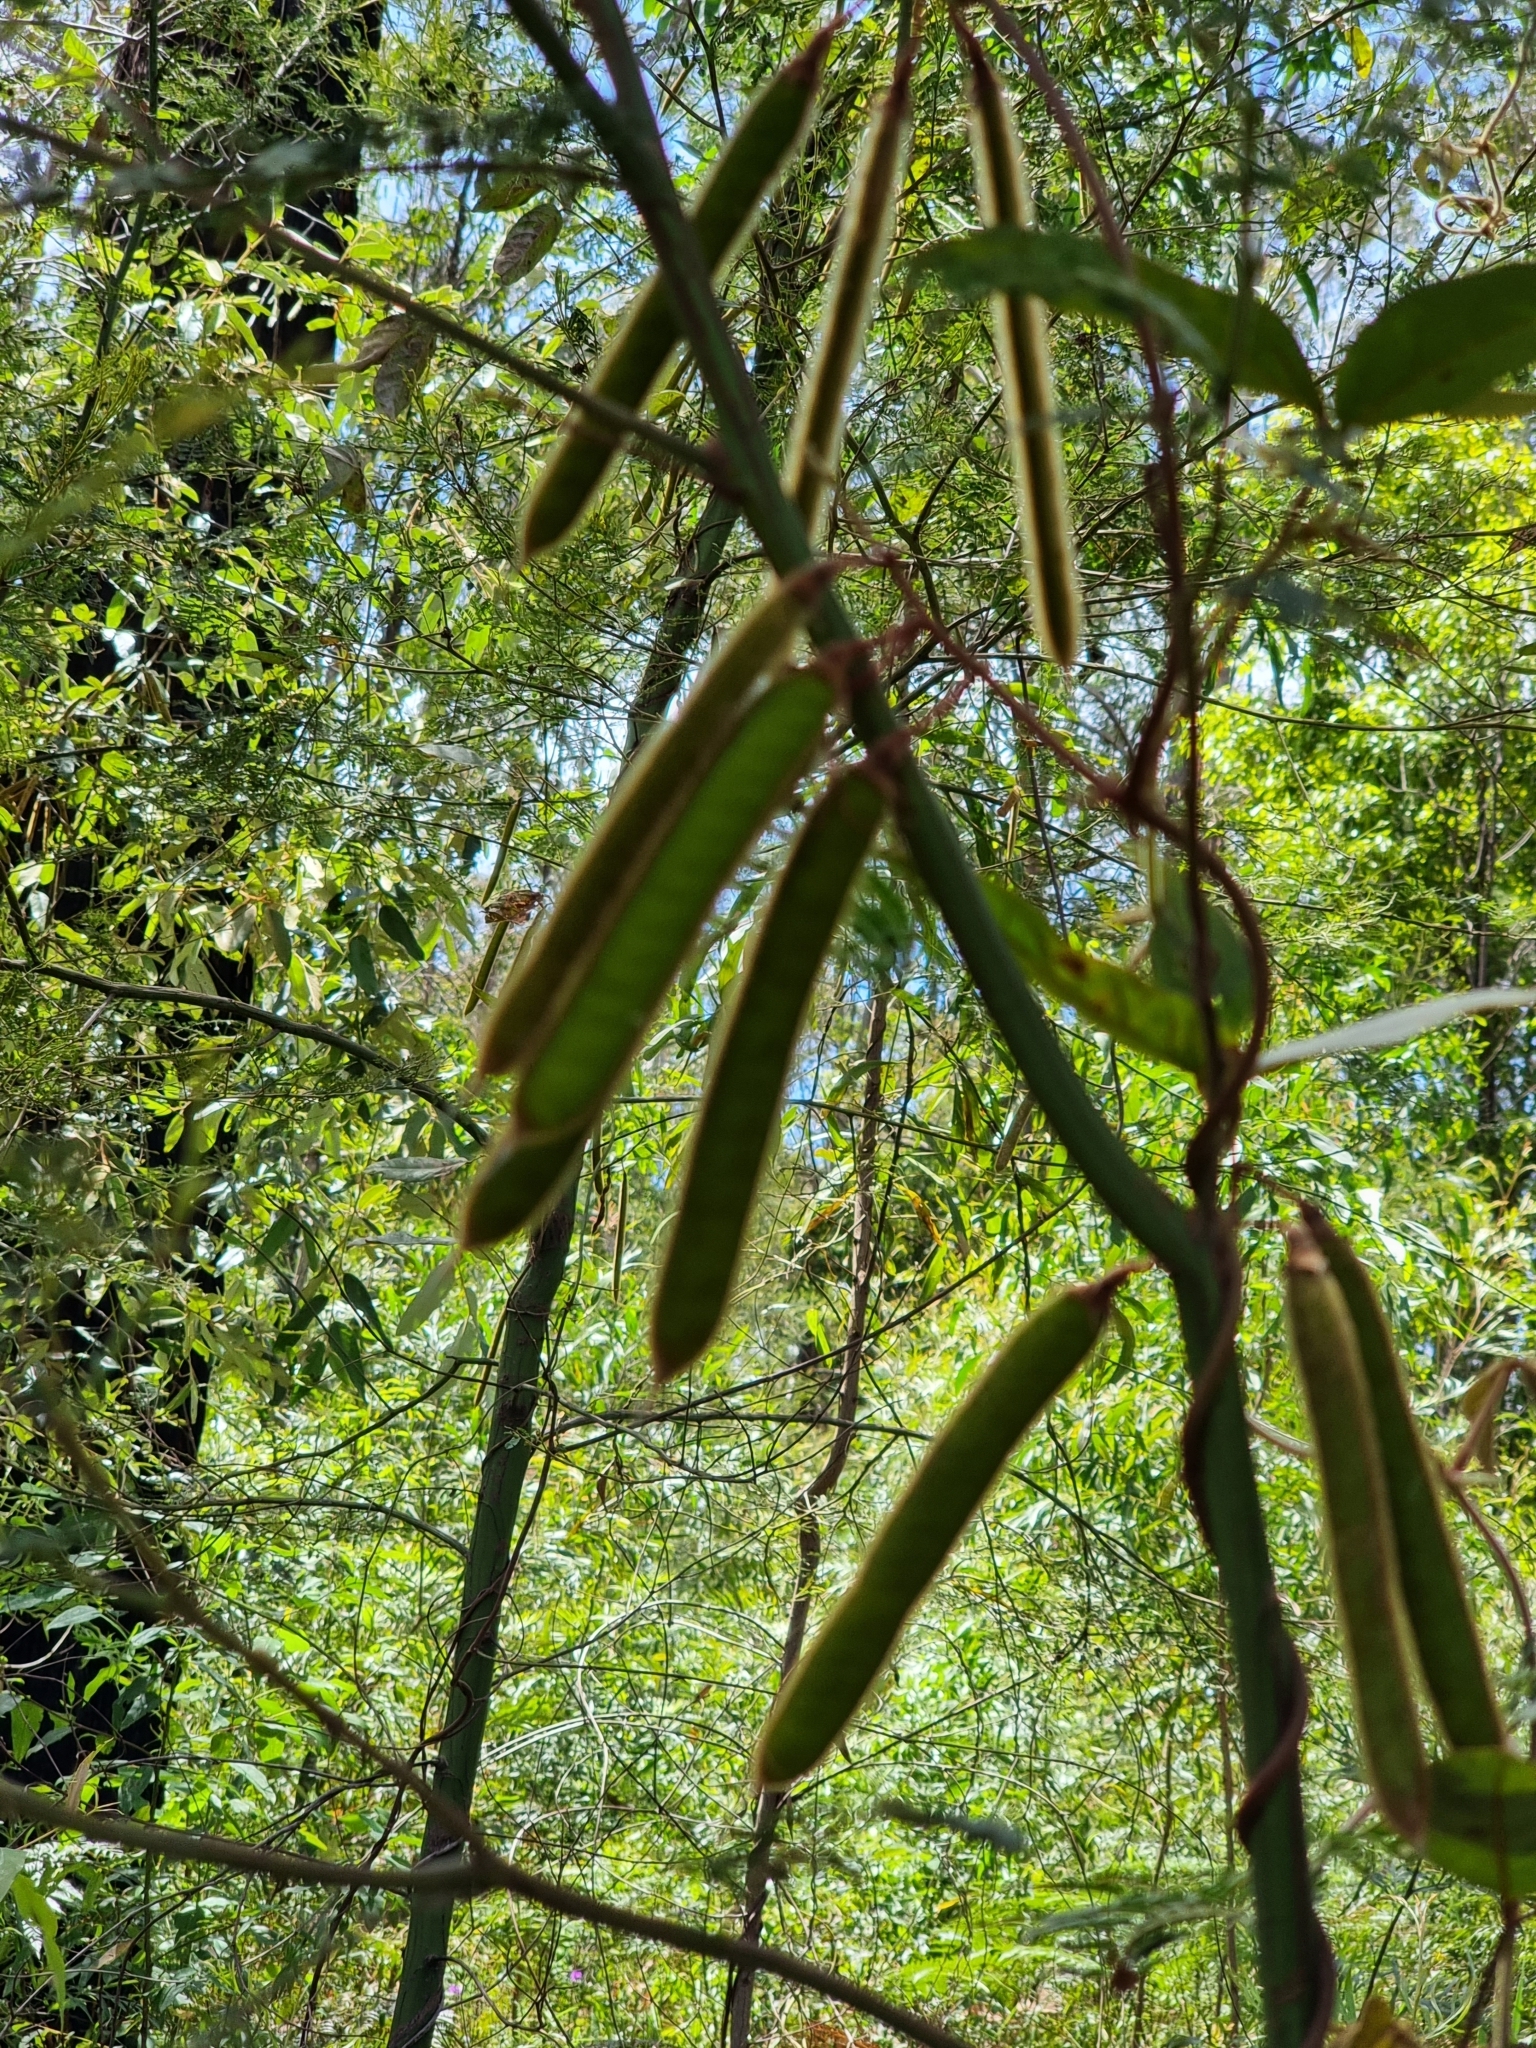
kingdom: Plantae
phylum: Tracheophyta
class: Magnoliopsida
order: Fabales
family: Fabaceae
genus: Kennedia
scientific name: Kennedia rubicunda
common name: Red kennedy-pea
